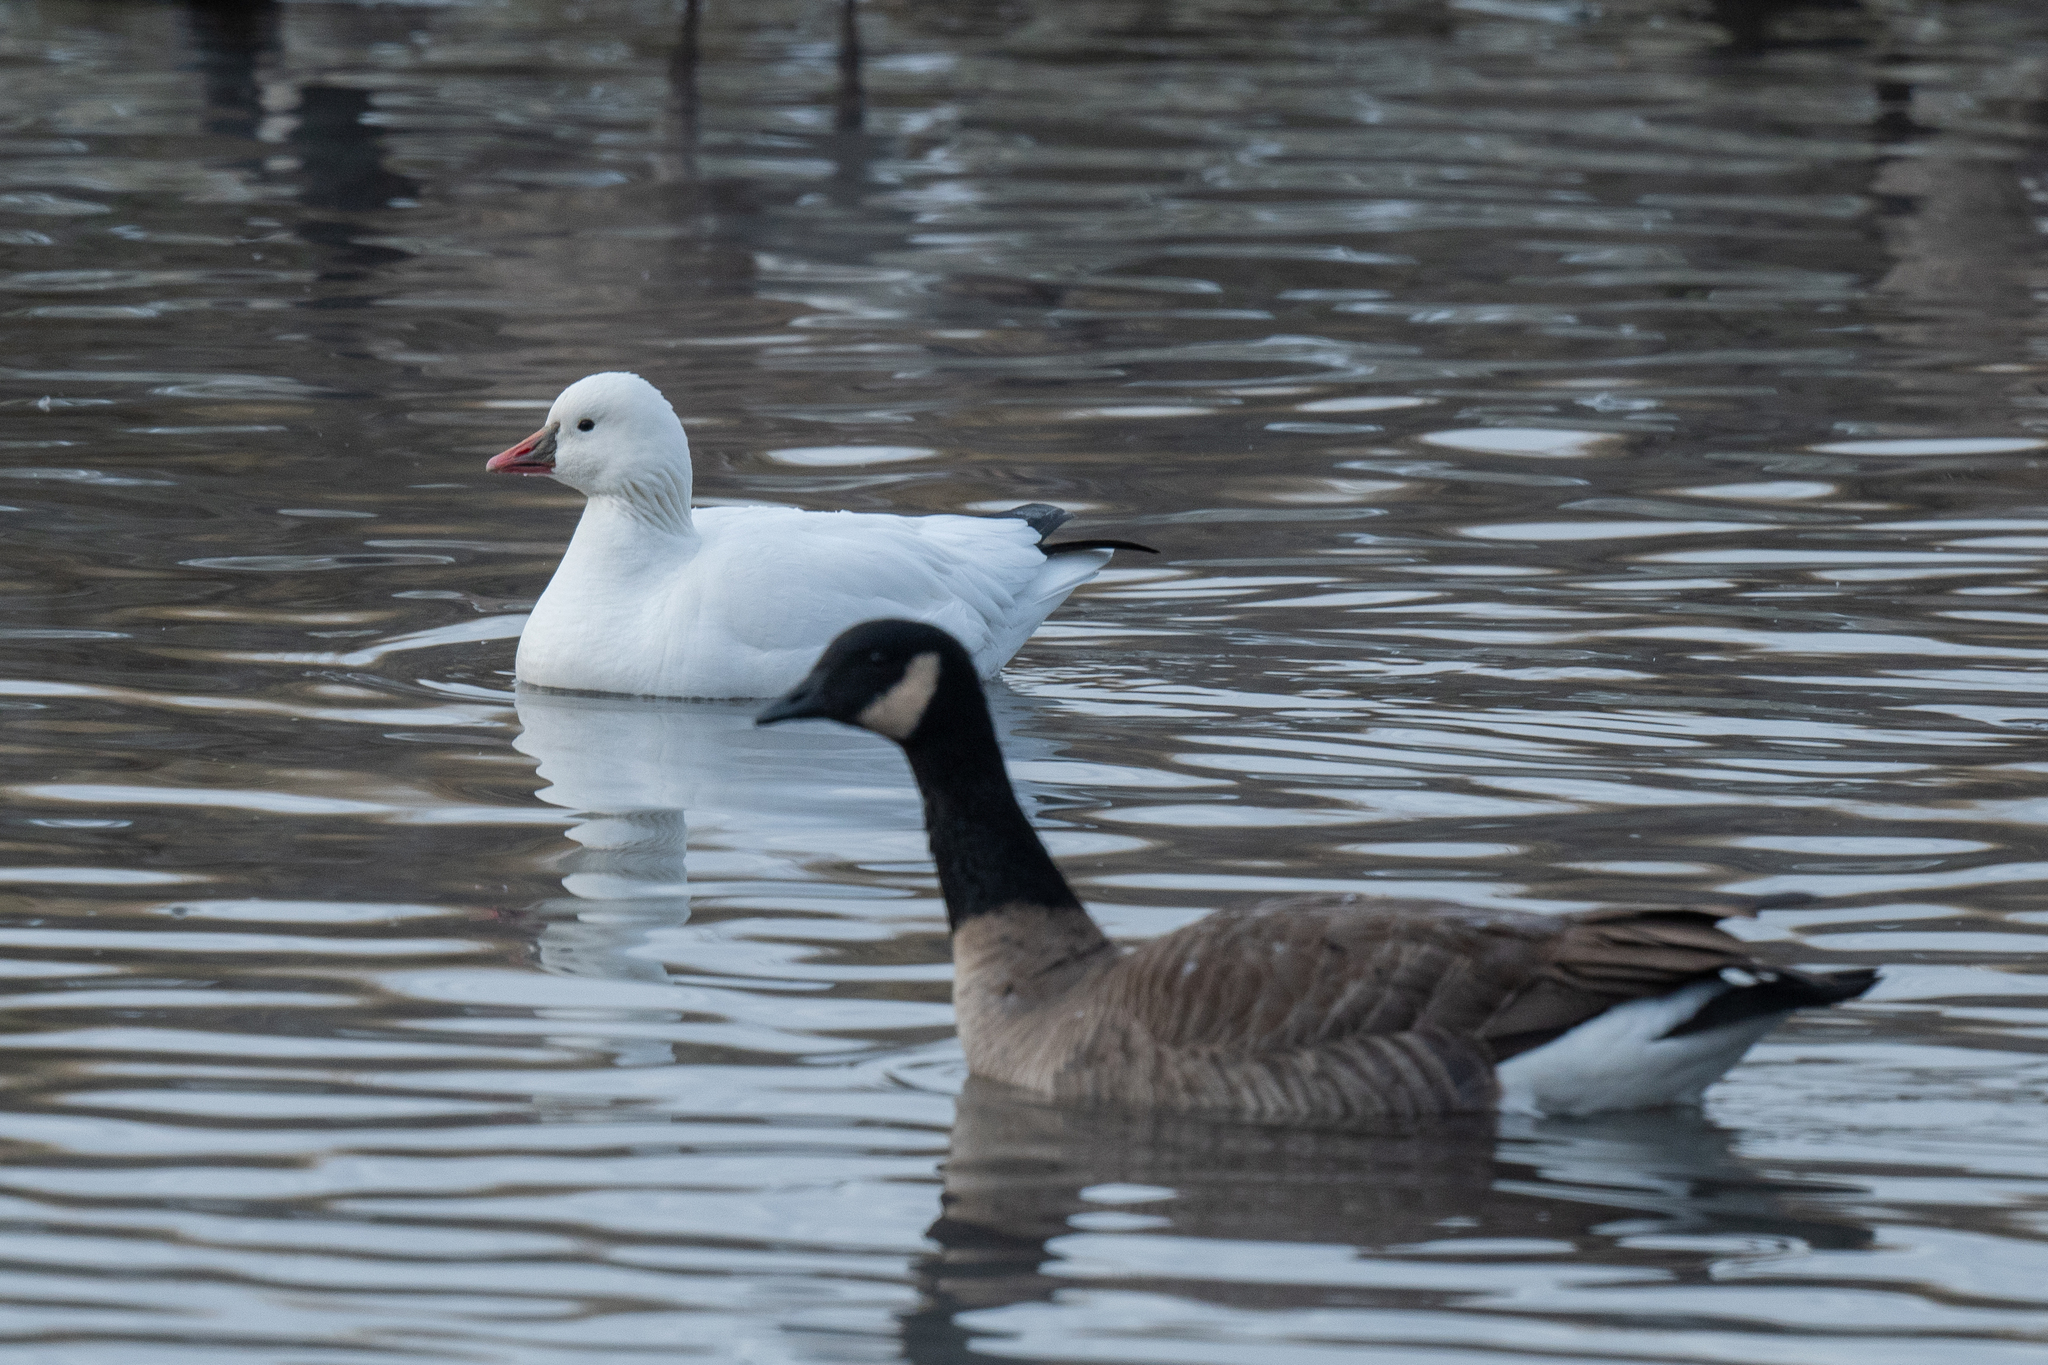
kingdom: Animalia
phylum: Chordata
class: Aves
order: Anseriformes
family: Anatidae
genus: Branta
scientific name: Branta hutchinsii
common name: Cackling goose
